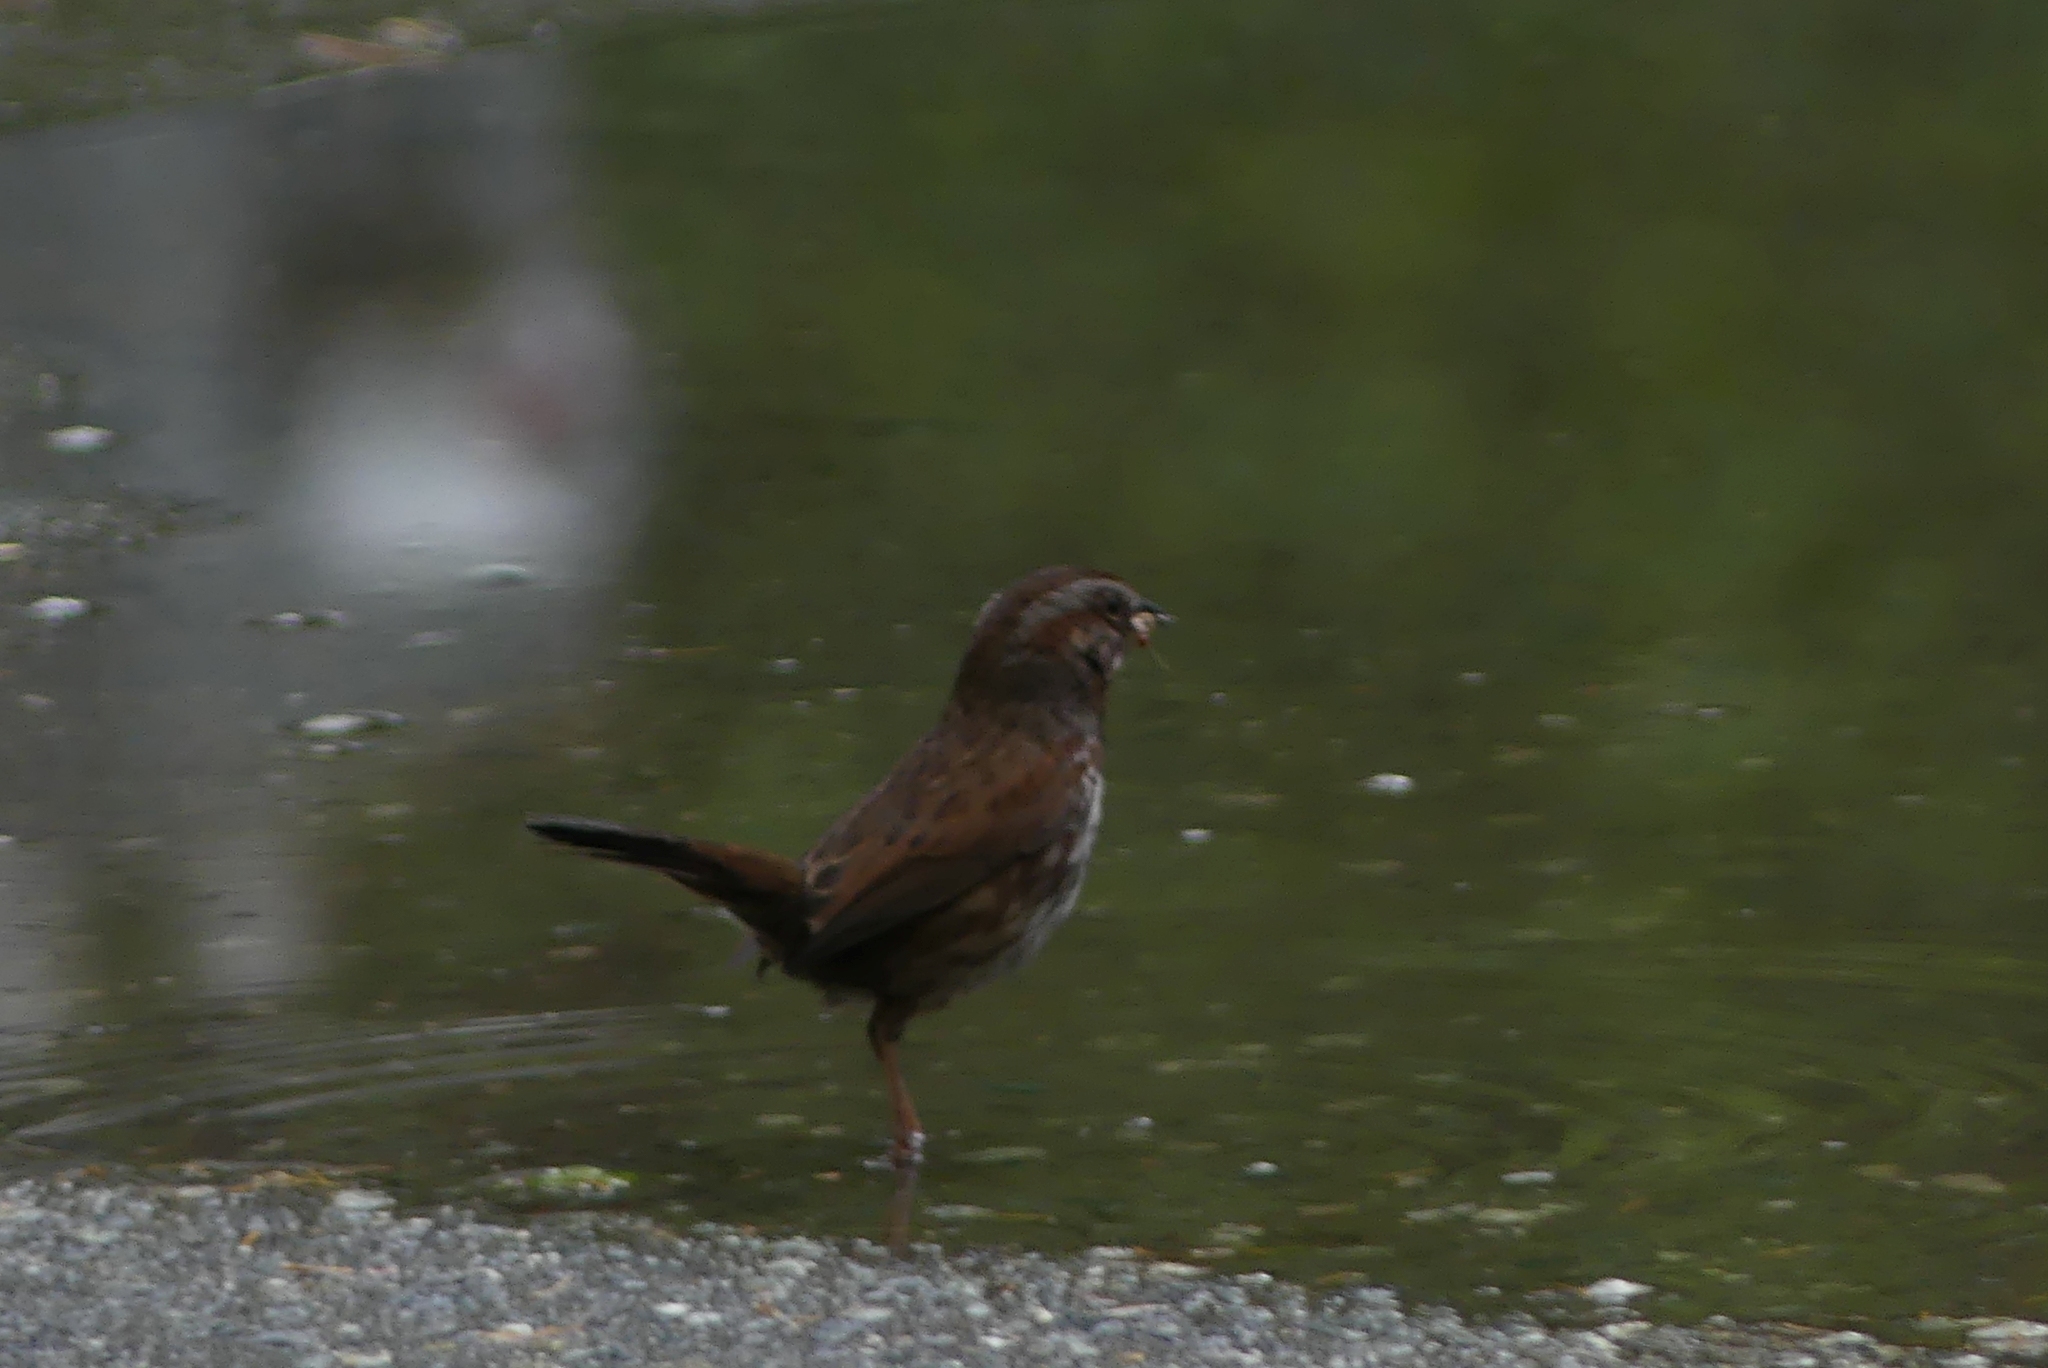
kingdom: Animalia
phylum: Chordata
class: Aves
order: Passeriformes
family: Passerellidae
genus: Melospiza
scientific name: Melospiza melodia
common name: Song sparrow
